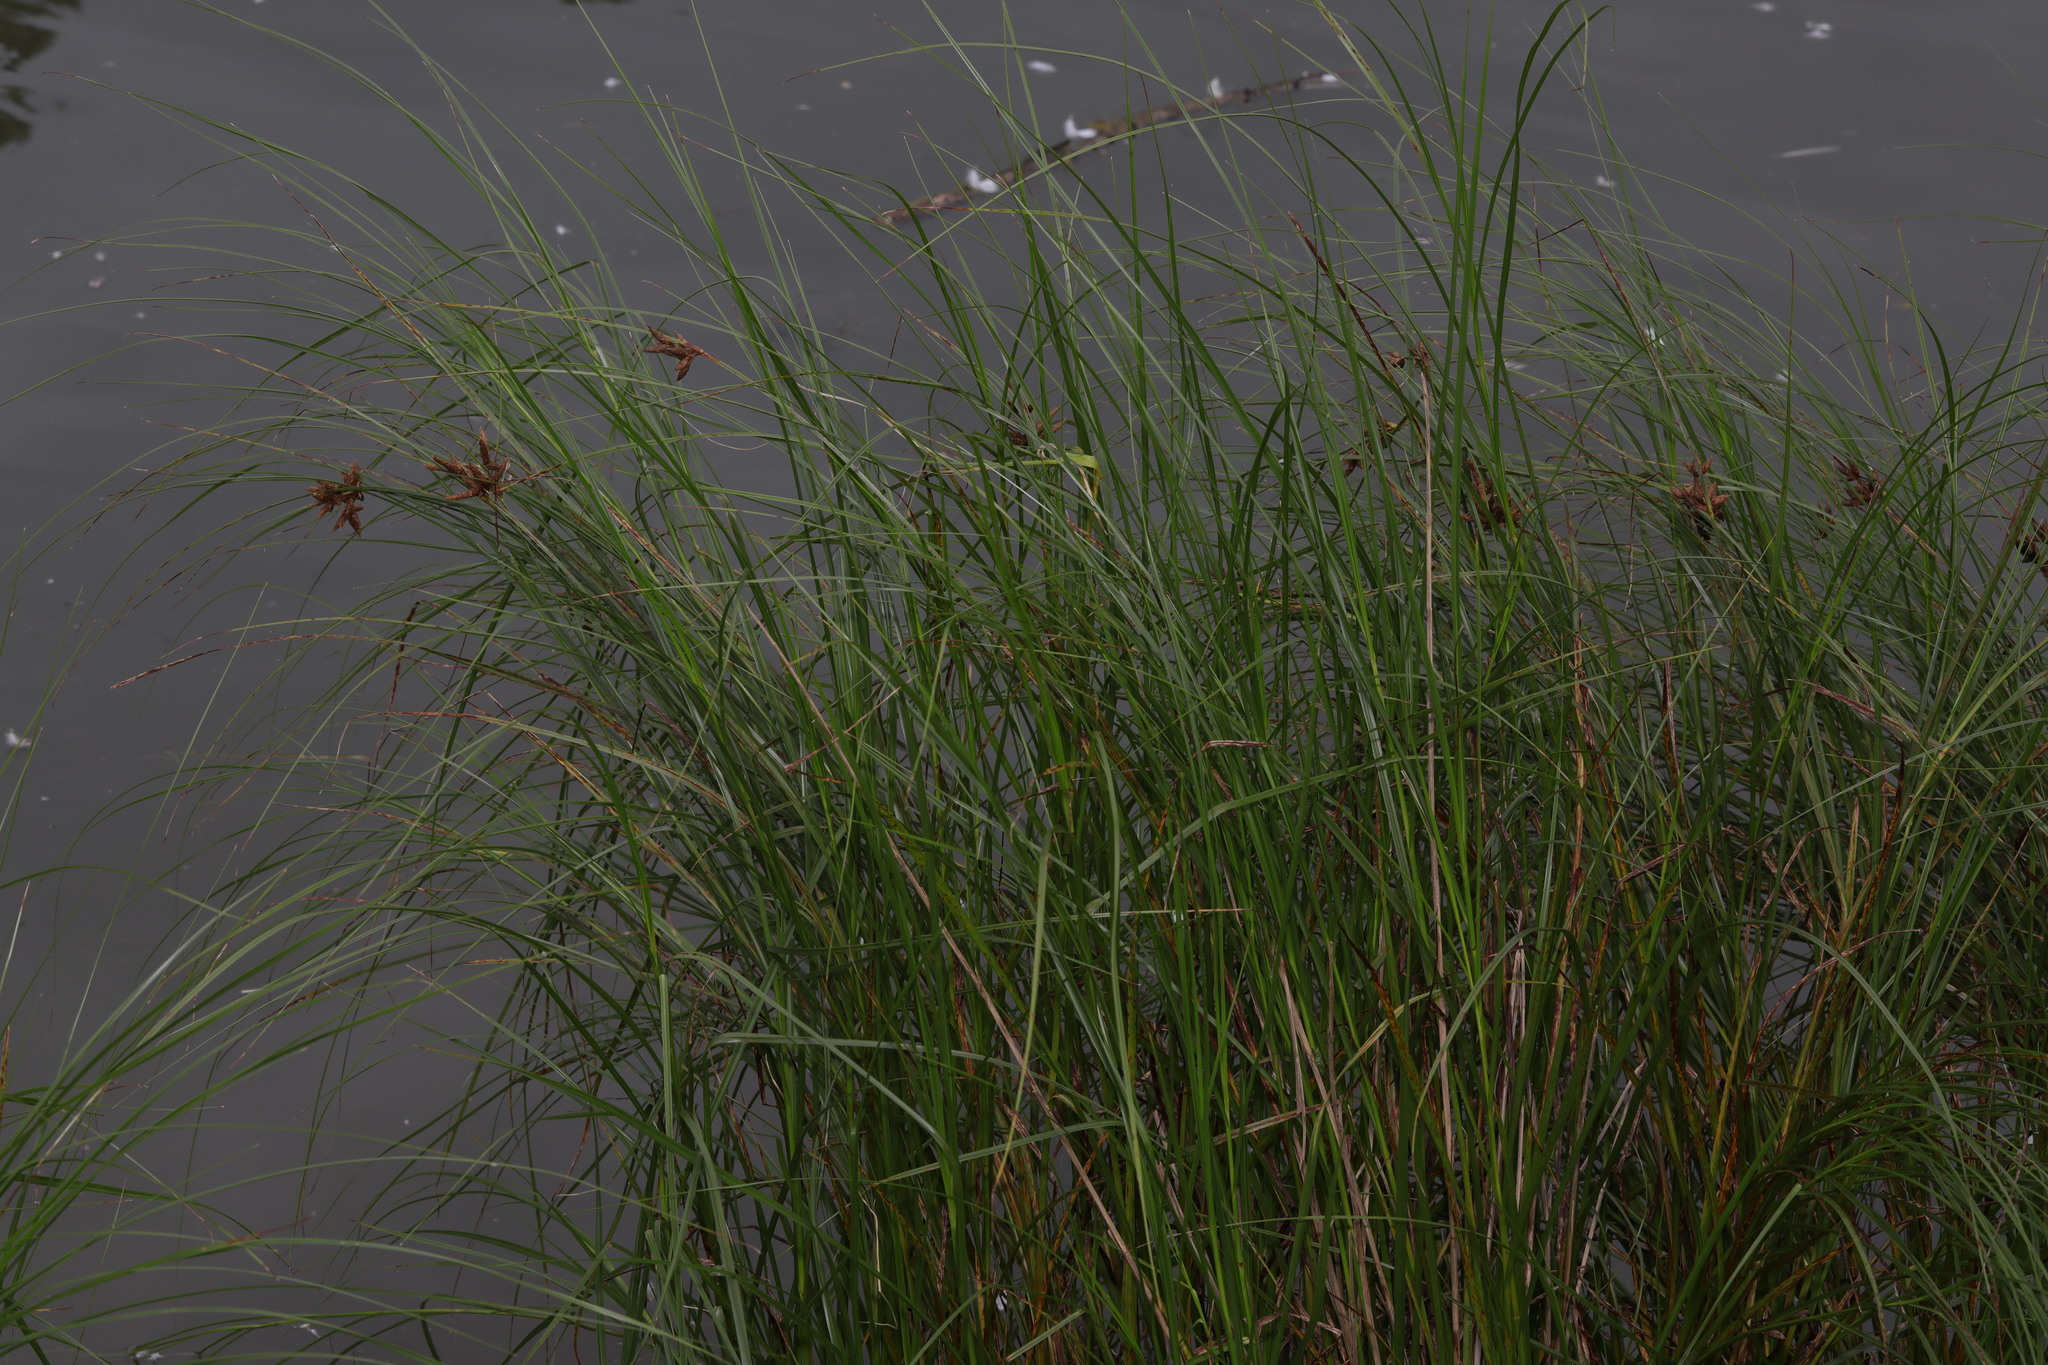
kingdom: Plantae
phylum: Tracheophyta
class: Liliopsida
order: Poales
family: Cyperaceae
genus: Bolboschoenus
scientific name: Bolboschoenus maritimus
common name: Sea club-rush
